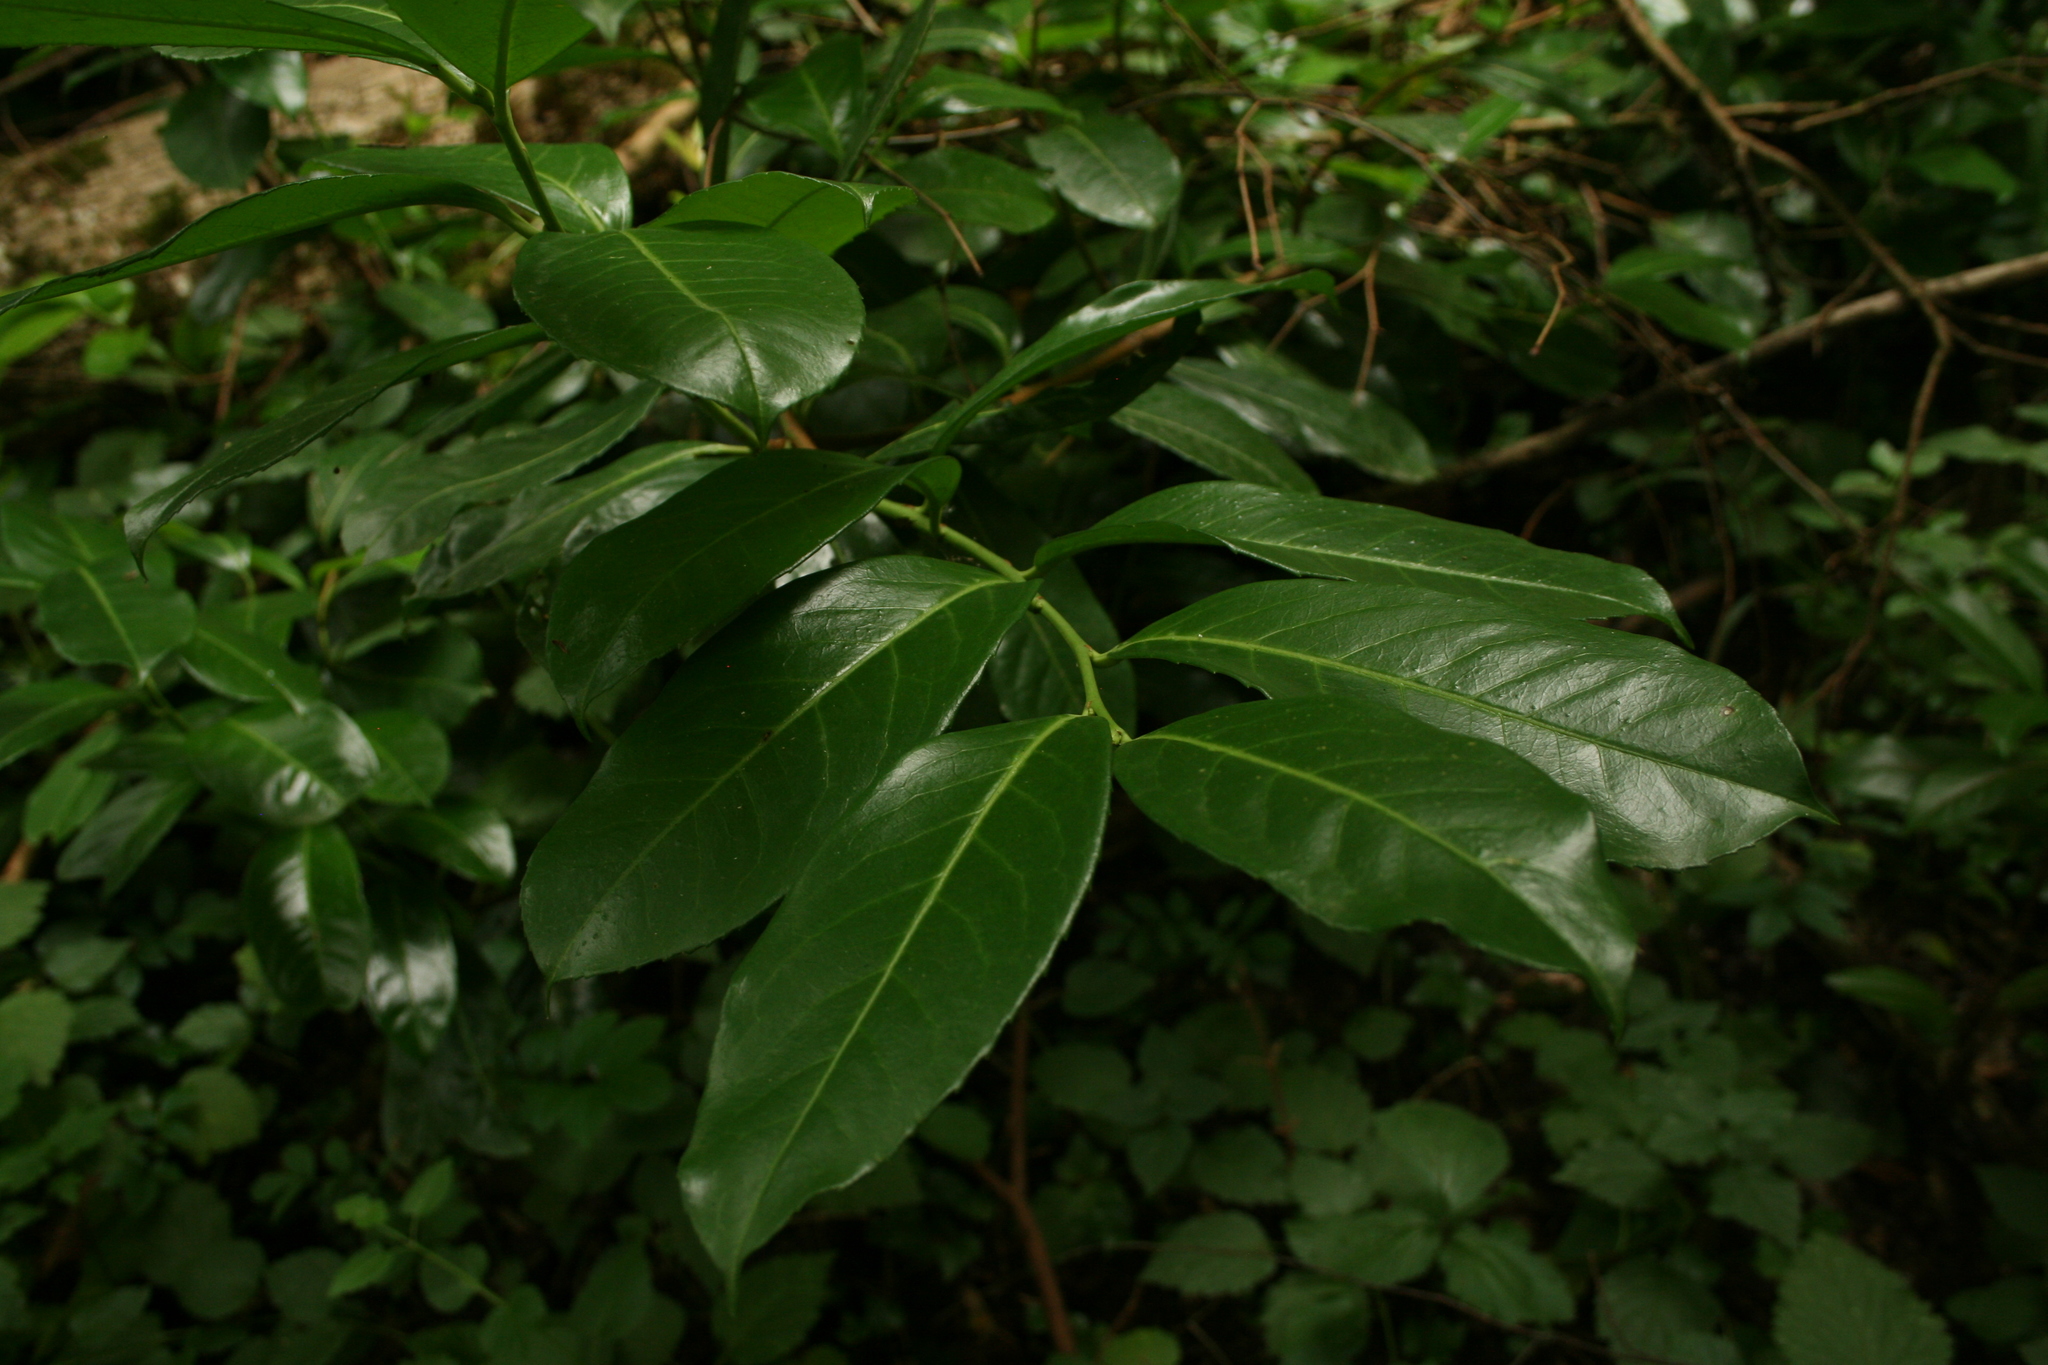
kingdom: Plantae
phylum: Tracheophyta
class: Magnoliopsida
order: Rosales
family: Rosaceae
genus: Prunus
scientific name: Prunus laurocerasus
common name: Cherry laurel
